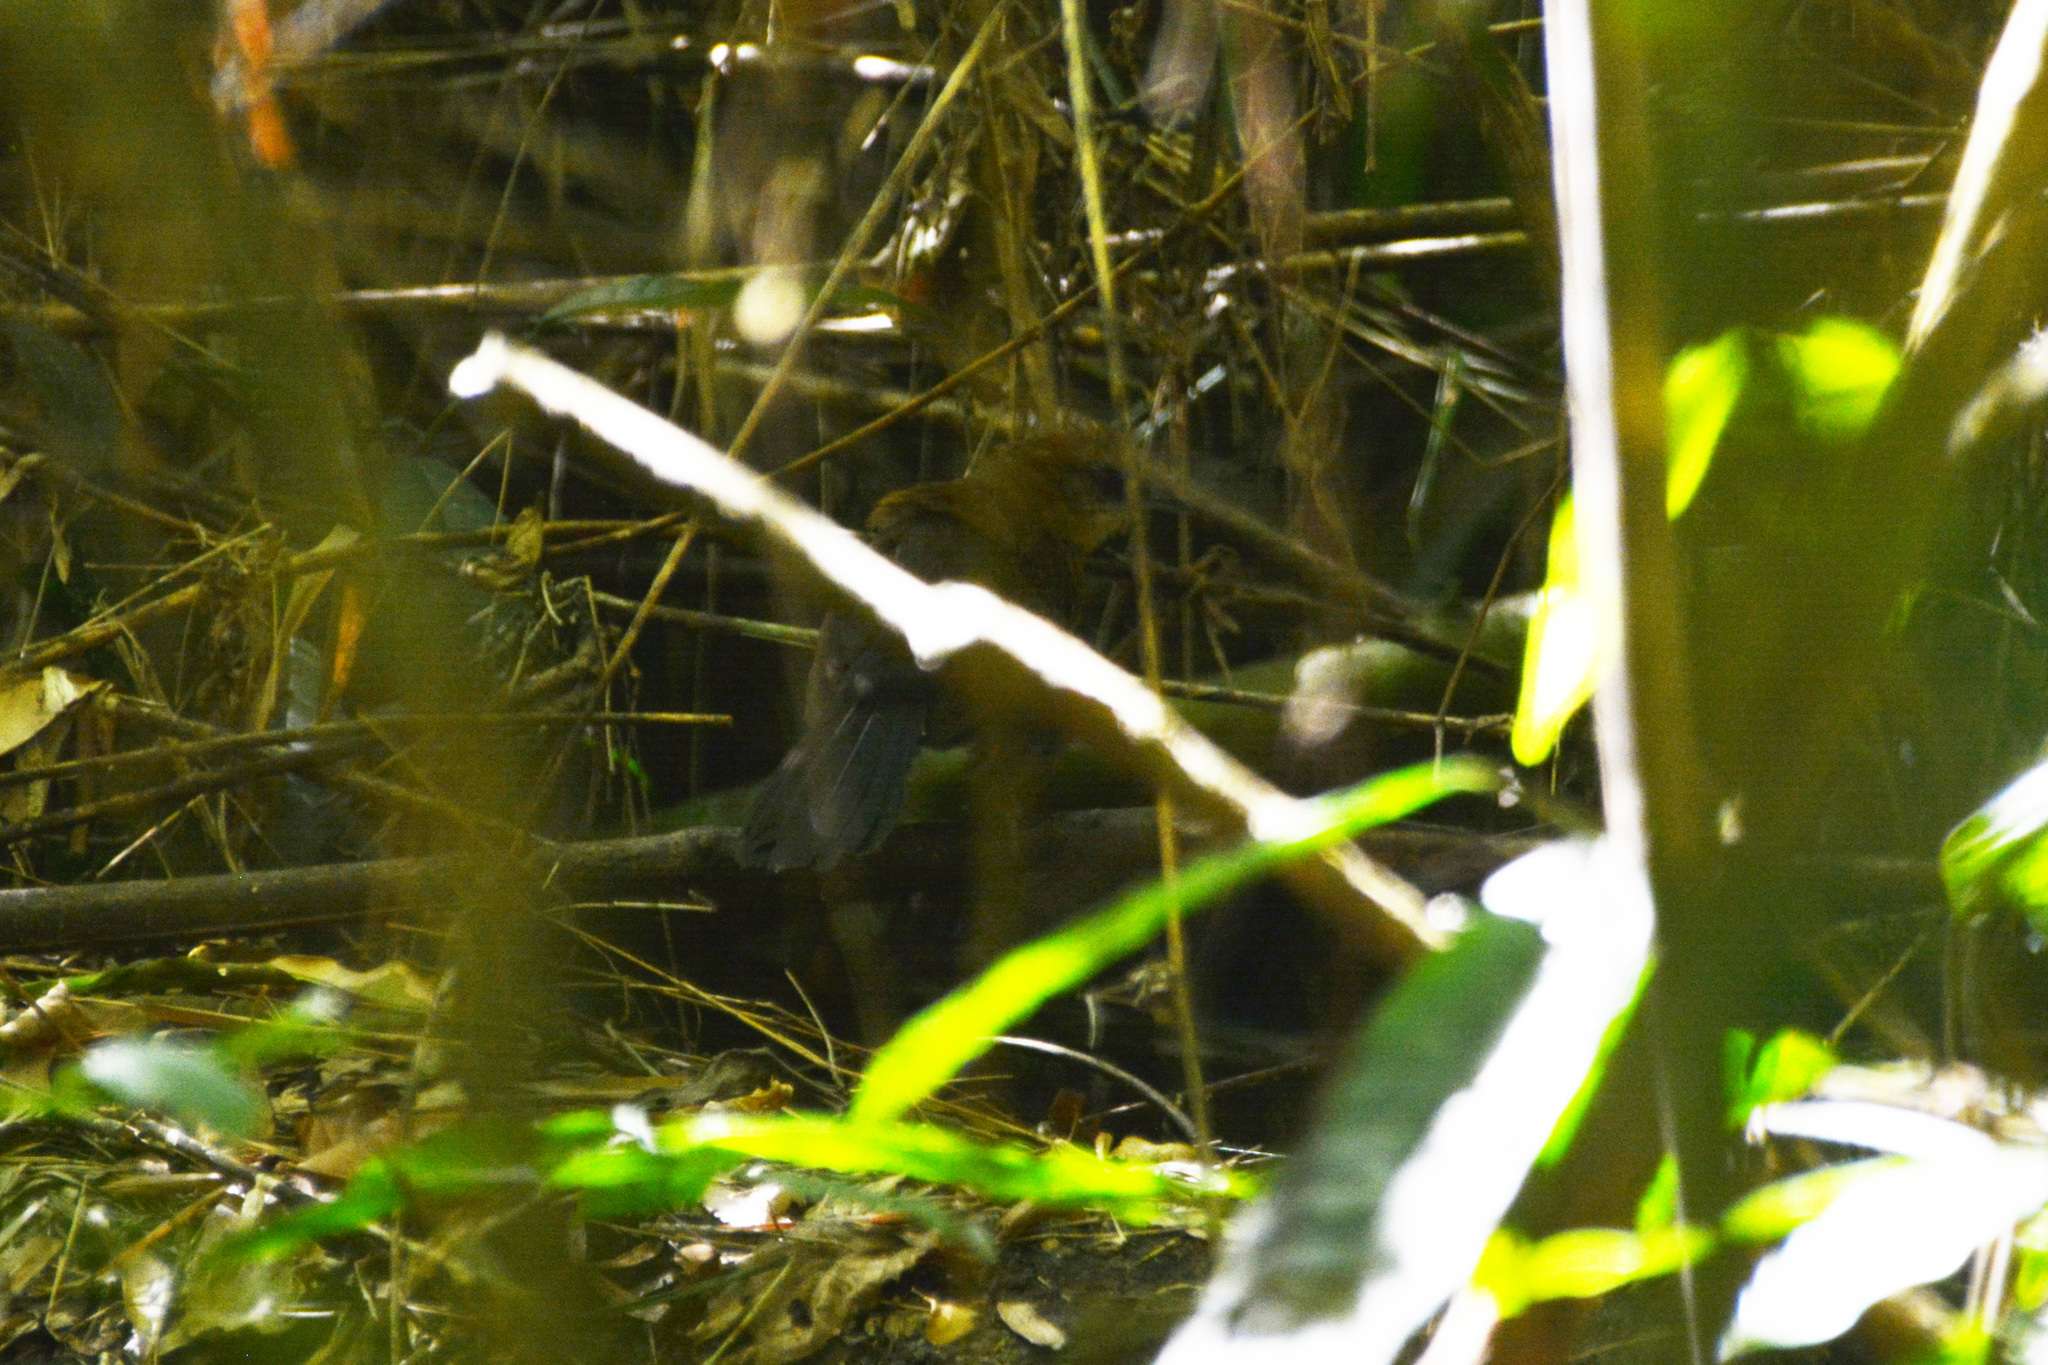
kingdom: Animalia
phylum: Chordata
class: Aves
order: Passeriformes
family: Thamnophilidae
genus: Pyriglena
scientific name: Pyriglena leucoptera
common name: White-shouldered fire-eye
